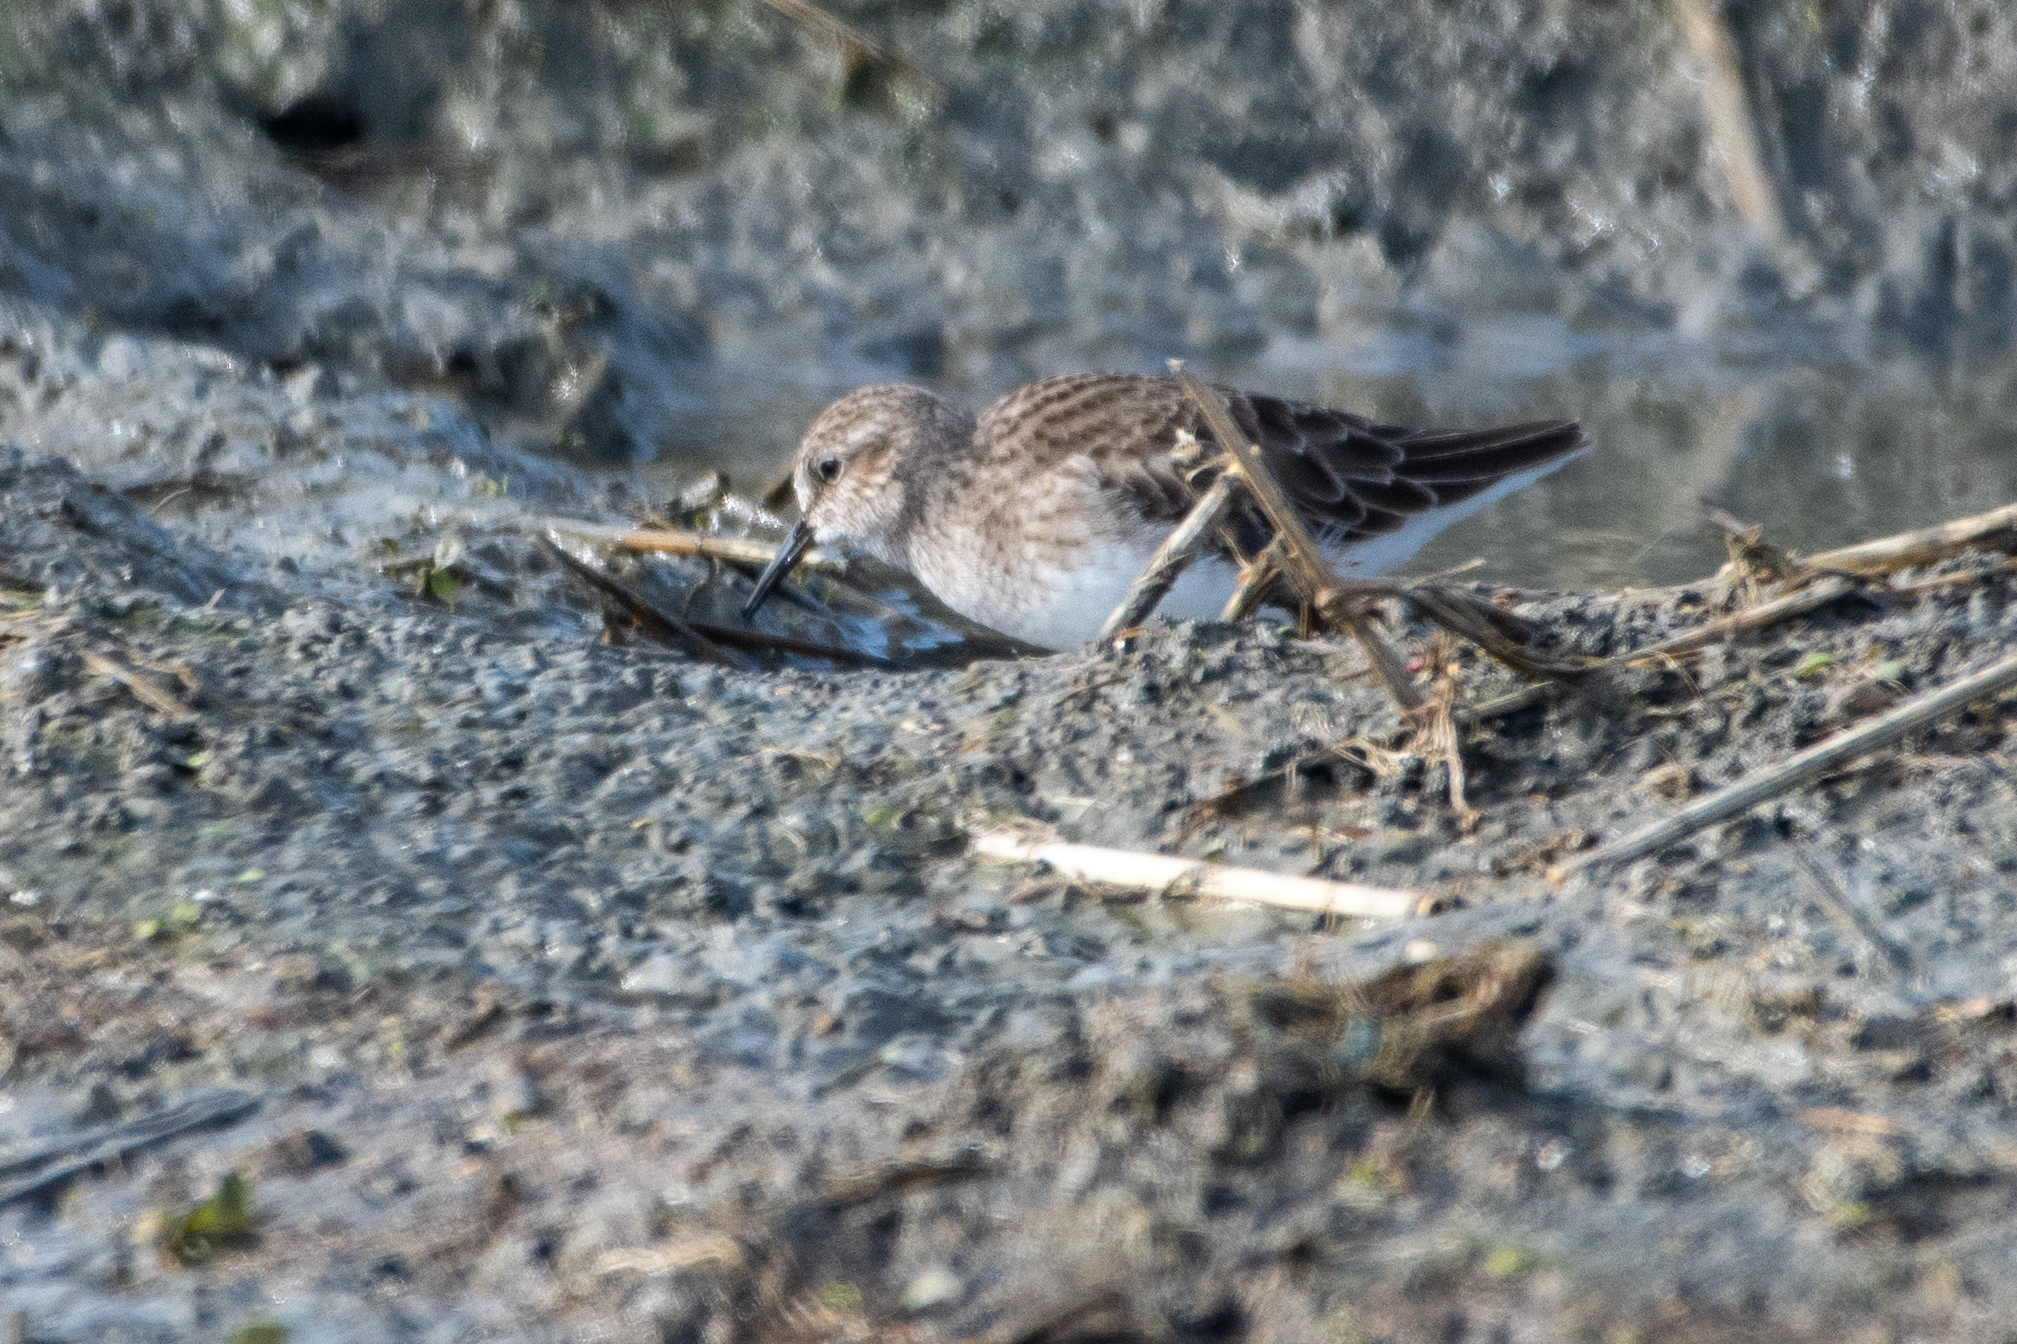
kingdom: Animalia
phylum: Chordata
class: Aves
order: Charadriiformes
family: Scolopacidae
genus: Calidris
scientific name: Calidris minutilla
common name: Least sandpiper
